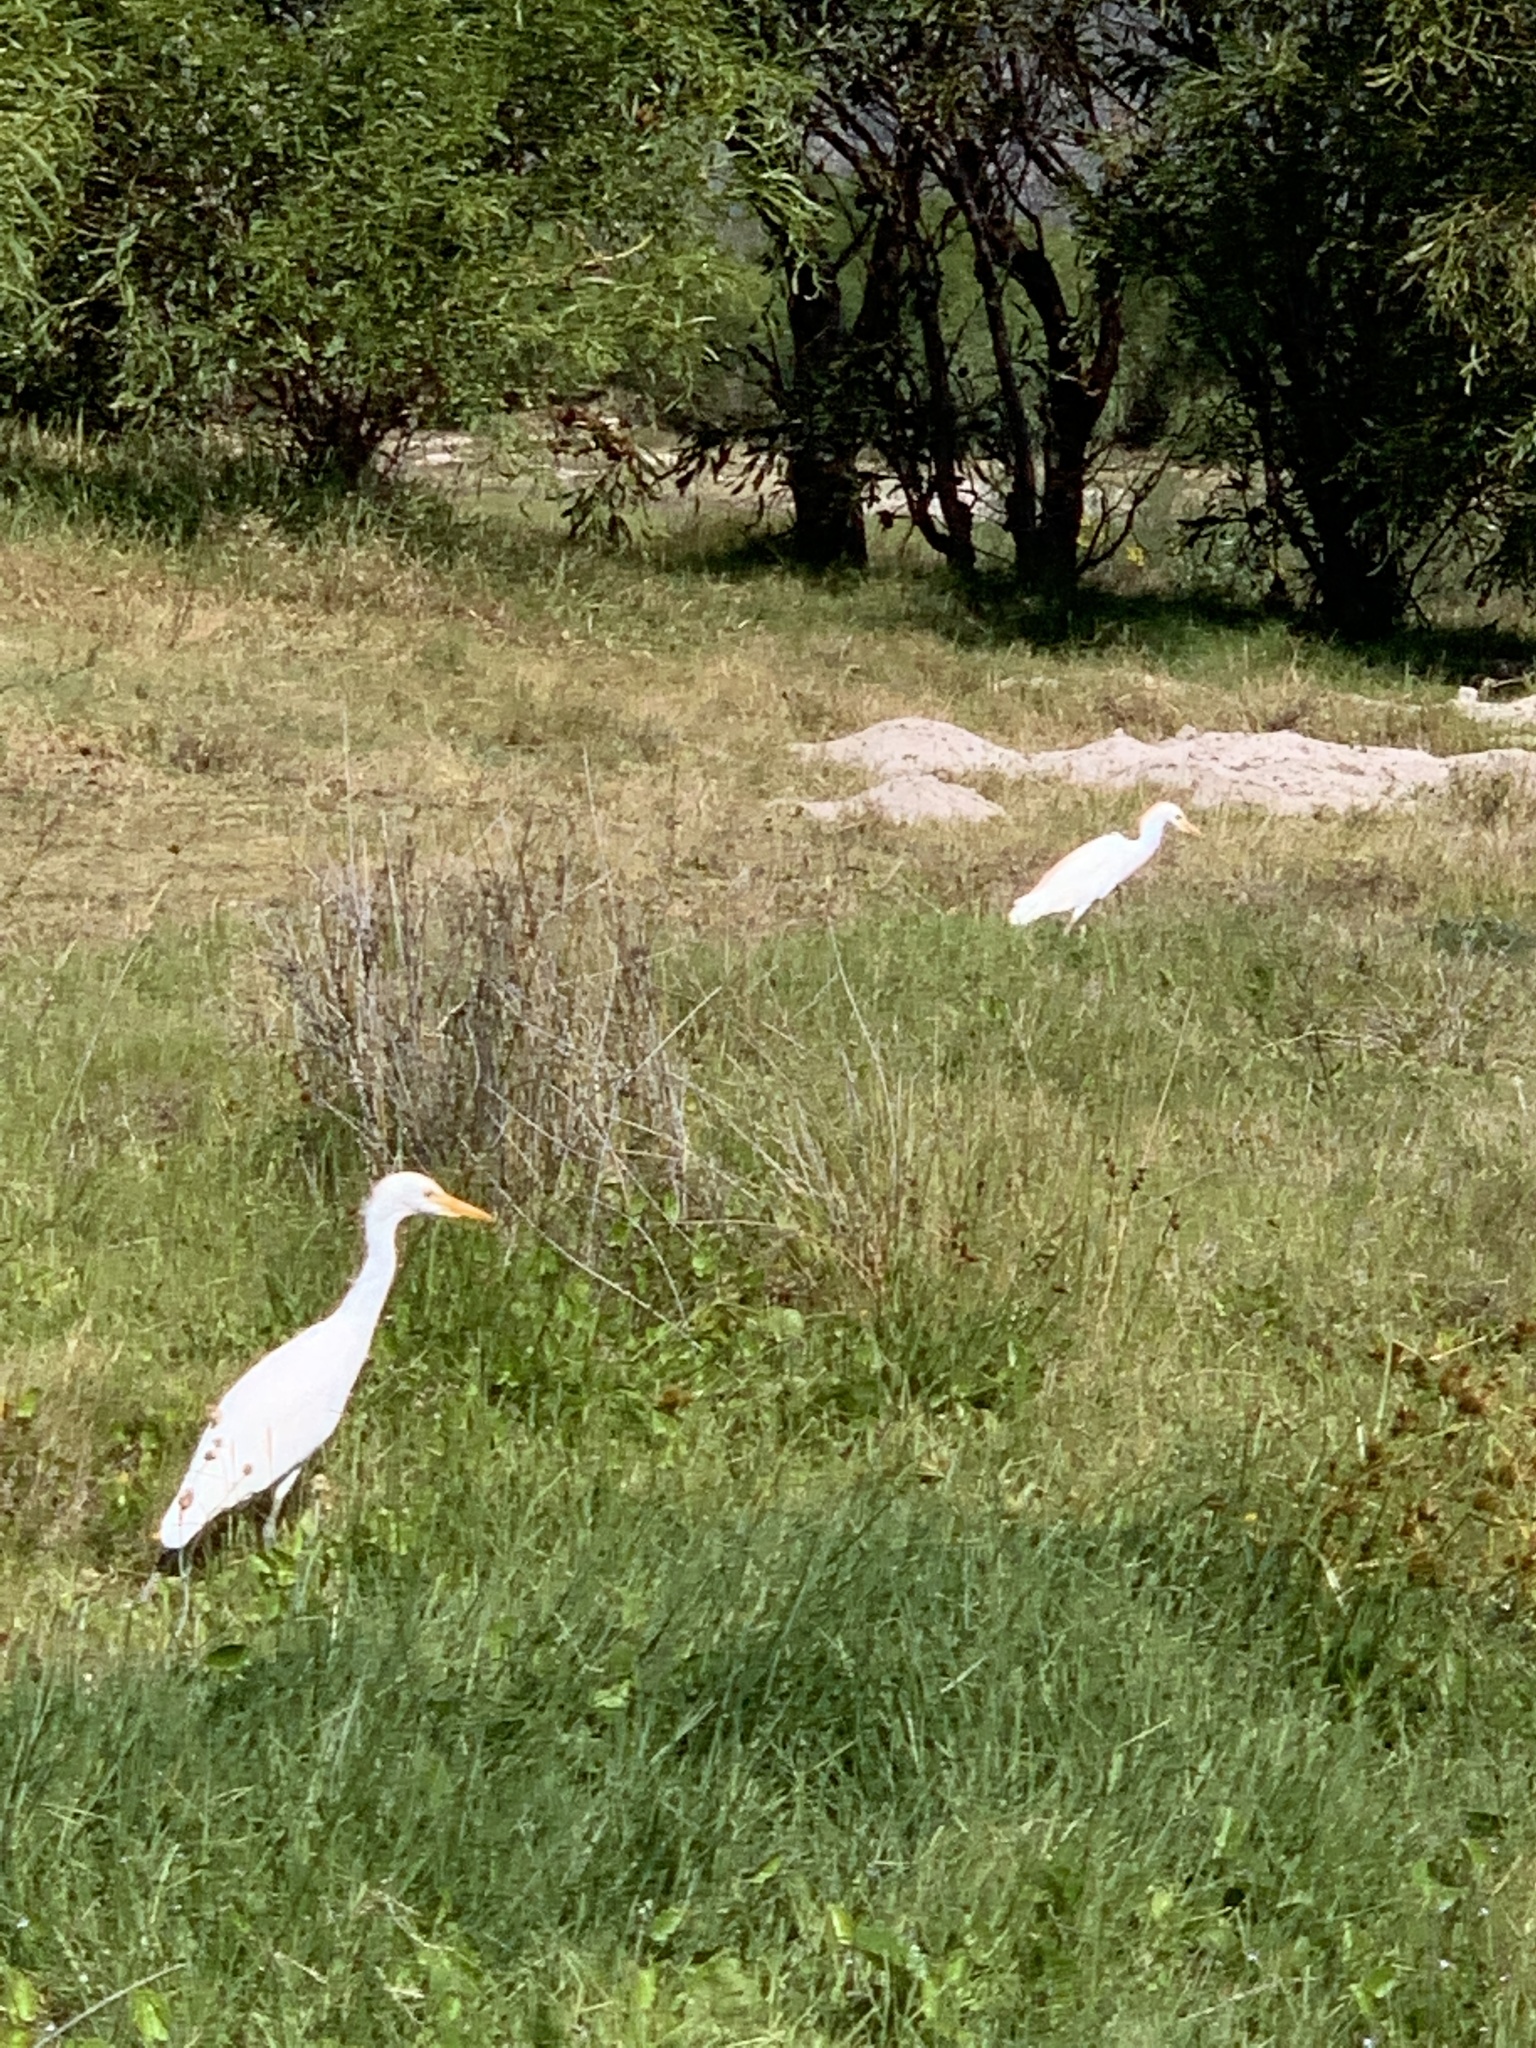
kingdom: Animalia
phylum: Chordata
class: Aves
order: Pelecaniformes
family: Ardeidae
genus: Bubulcus
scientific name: Bubulcus ibis
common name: Cattle egret
